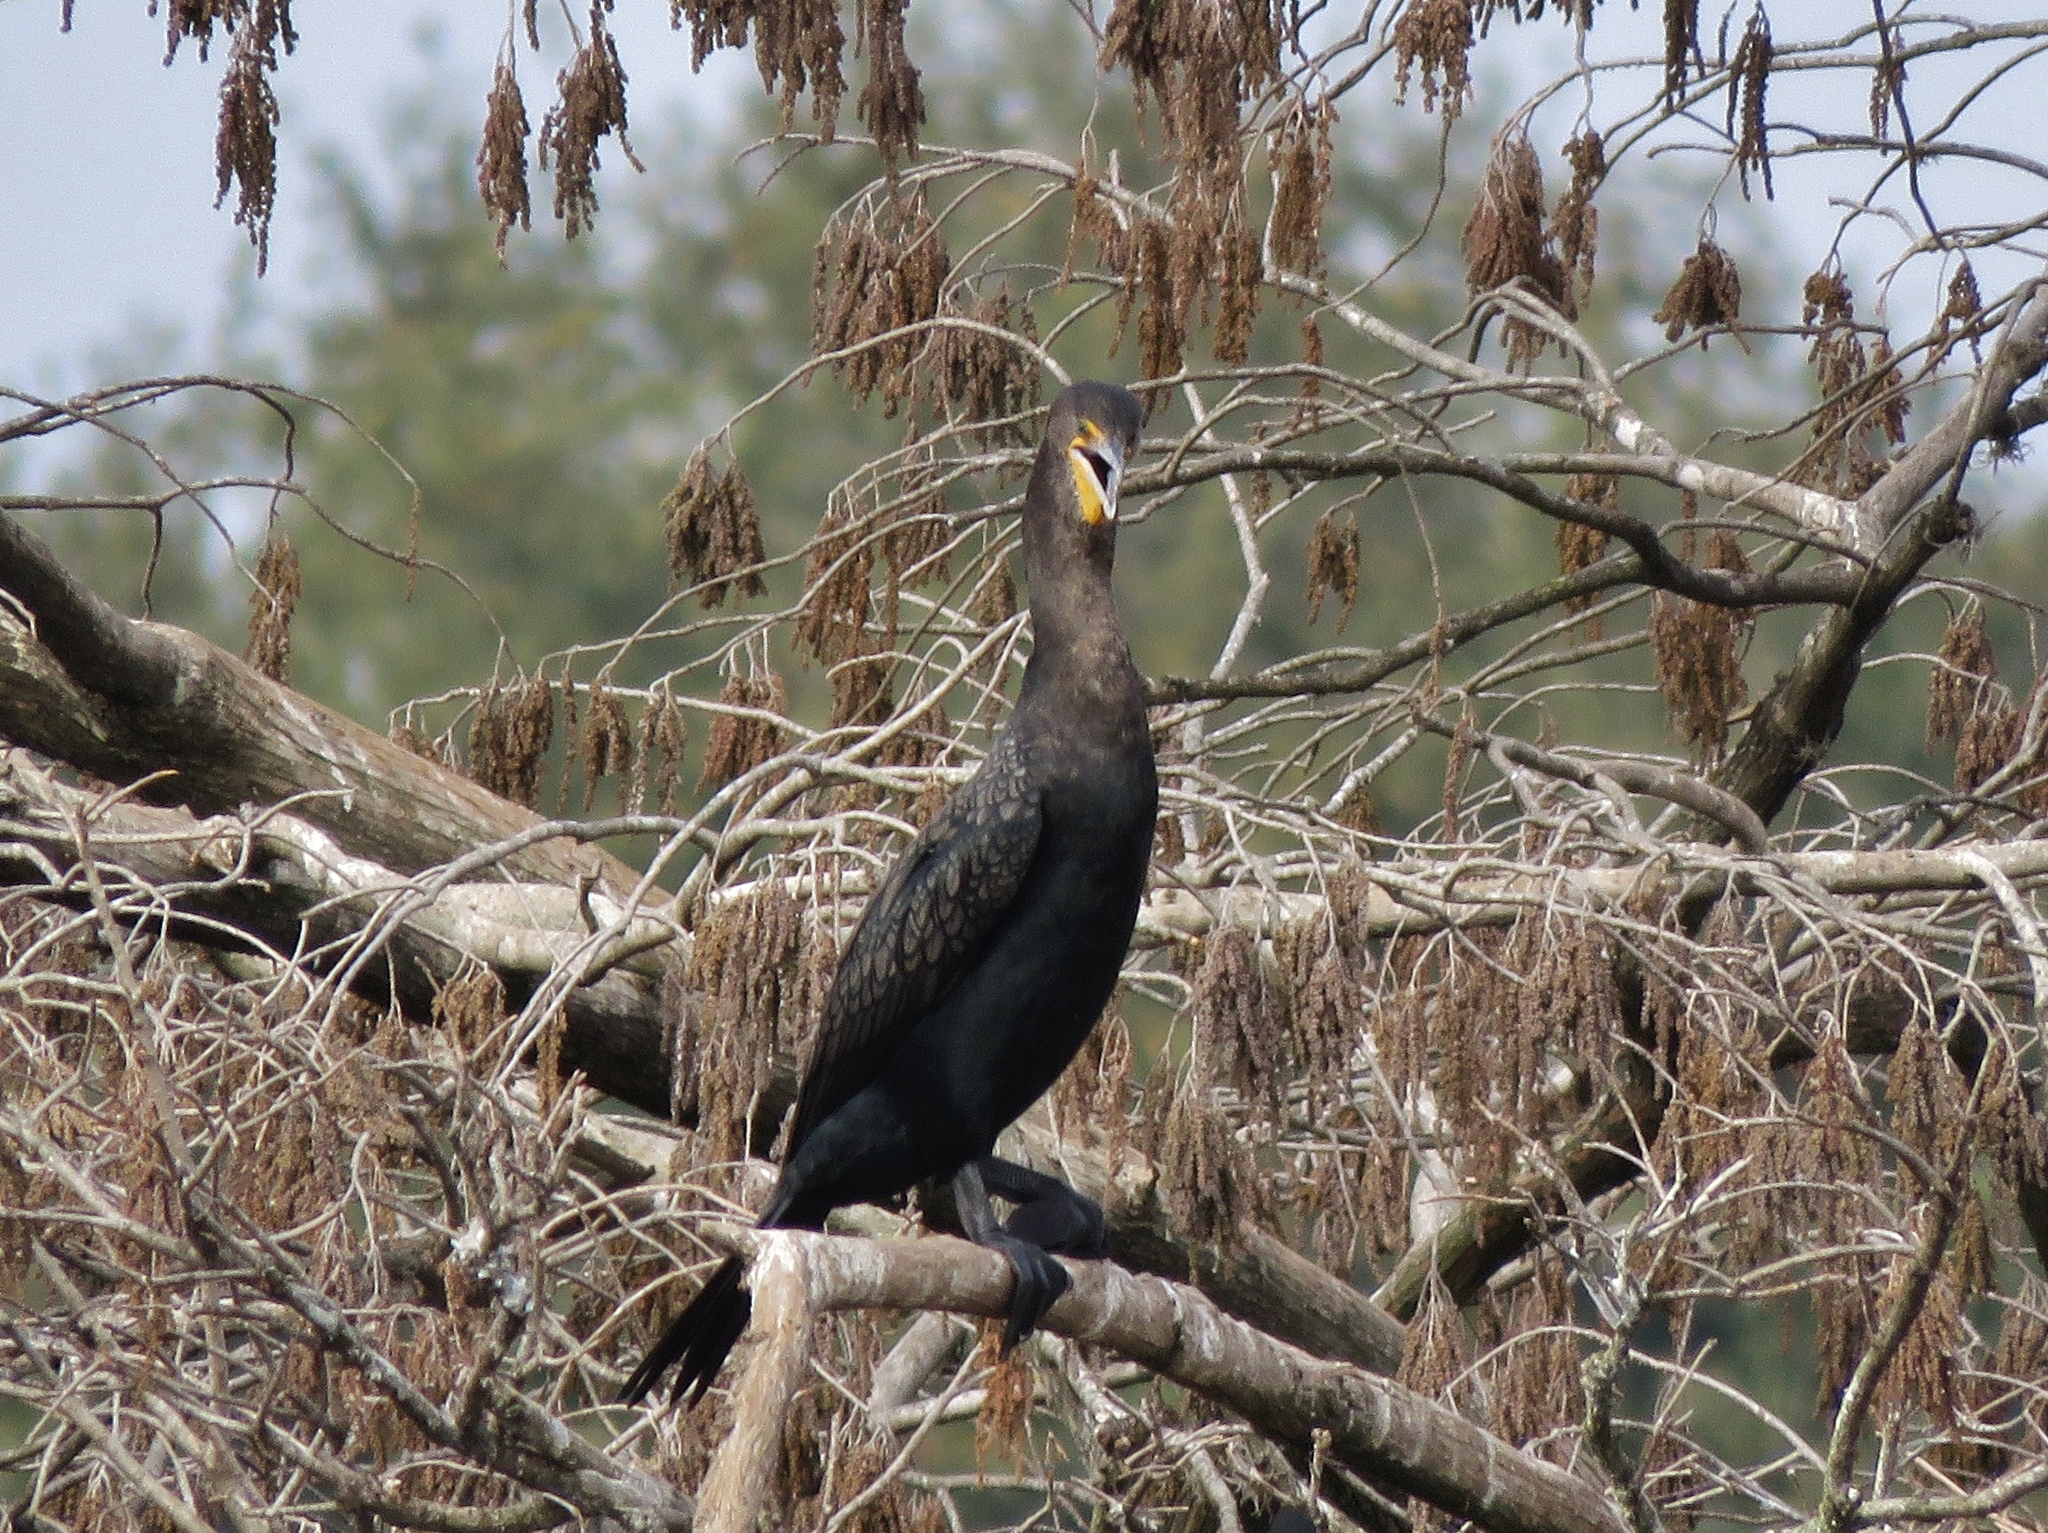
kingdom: Animalia
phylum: Chordata
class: Aves
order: Suliformes
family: Phalacrocoracidae
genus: Phalacrocorax
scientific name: Phalacrocorax auritus
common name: Double-crested cormorant
